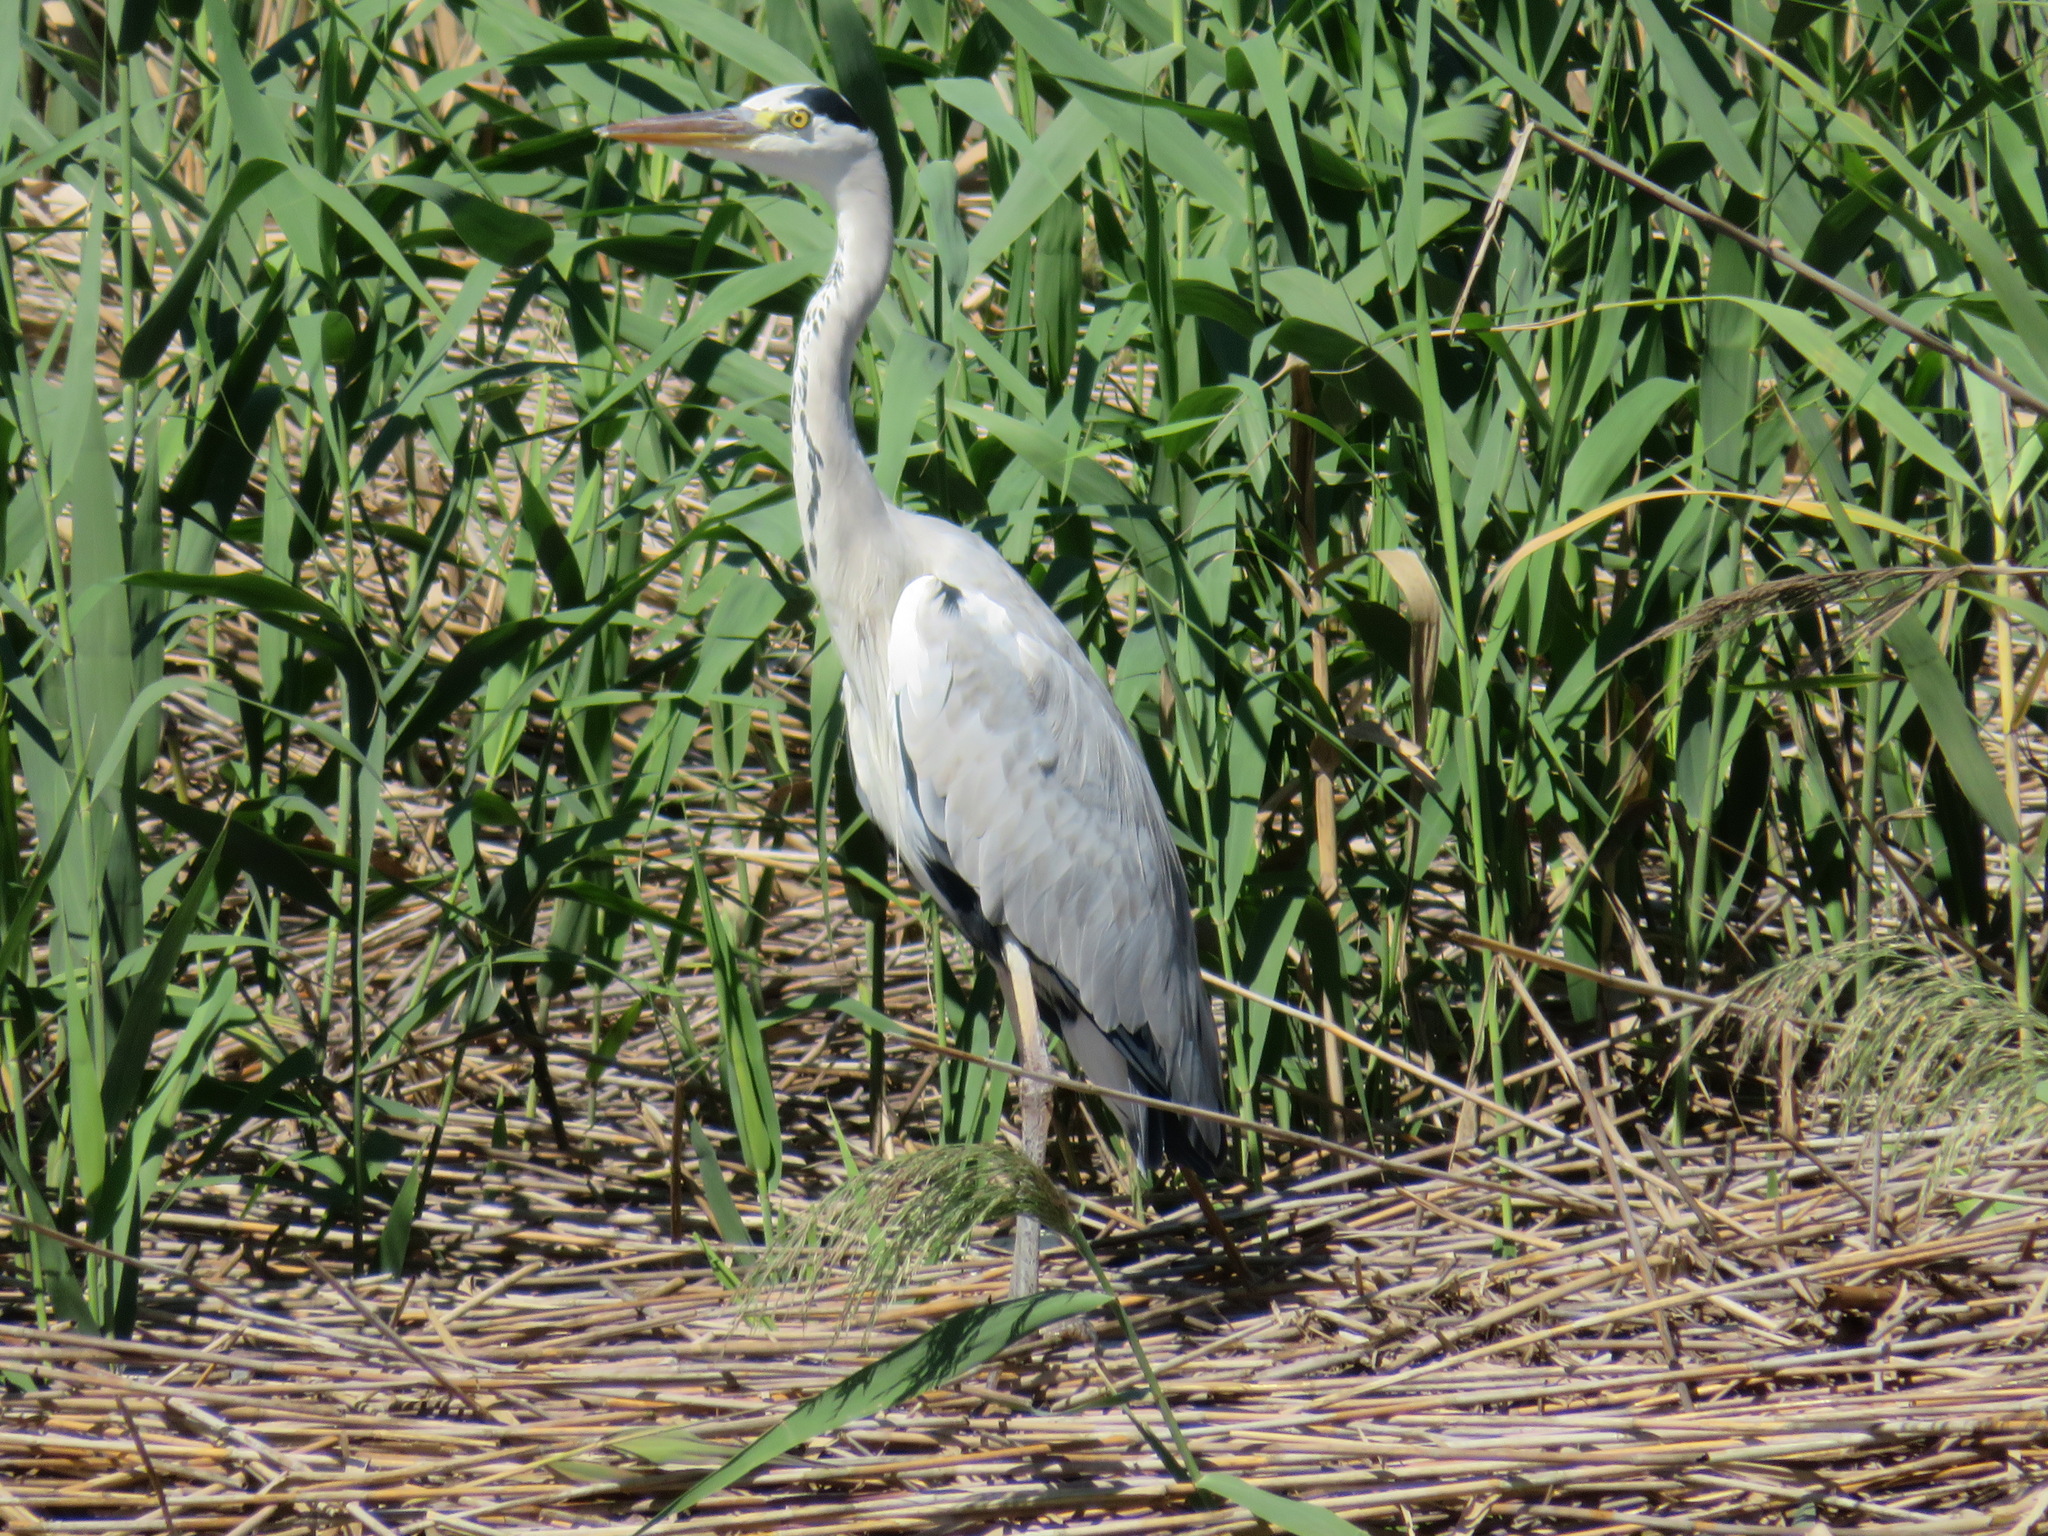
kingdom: Animalia
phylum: Chordata
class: Aves
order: Pelecaniformes
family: Ardeidae
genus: Ardea
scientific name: Ardea cinerea
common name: Grey heron
